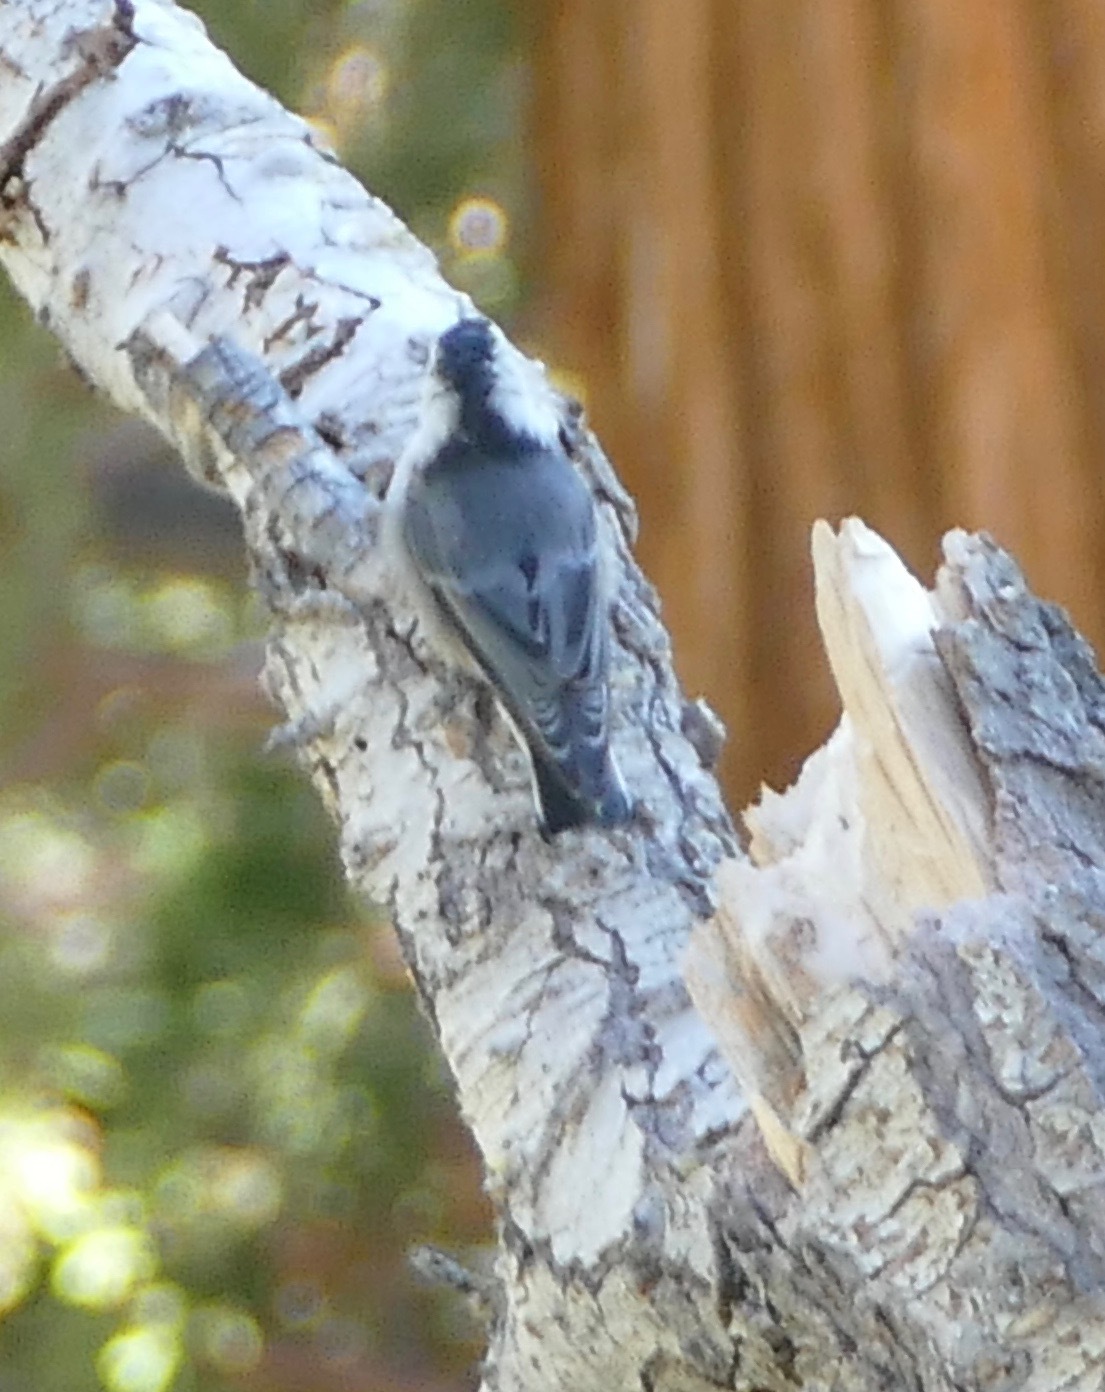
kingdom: Animalia
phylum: Chordata
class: Aves
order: Passeriformes
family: Sittidae
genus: Sitta
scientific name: Sitta carolinensis
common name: White-breasted nuthatch
